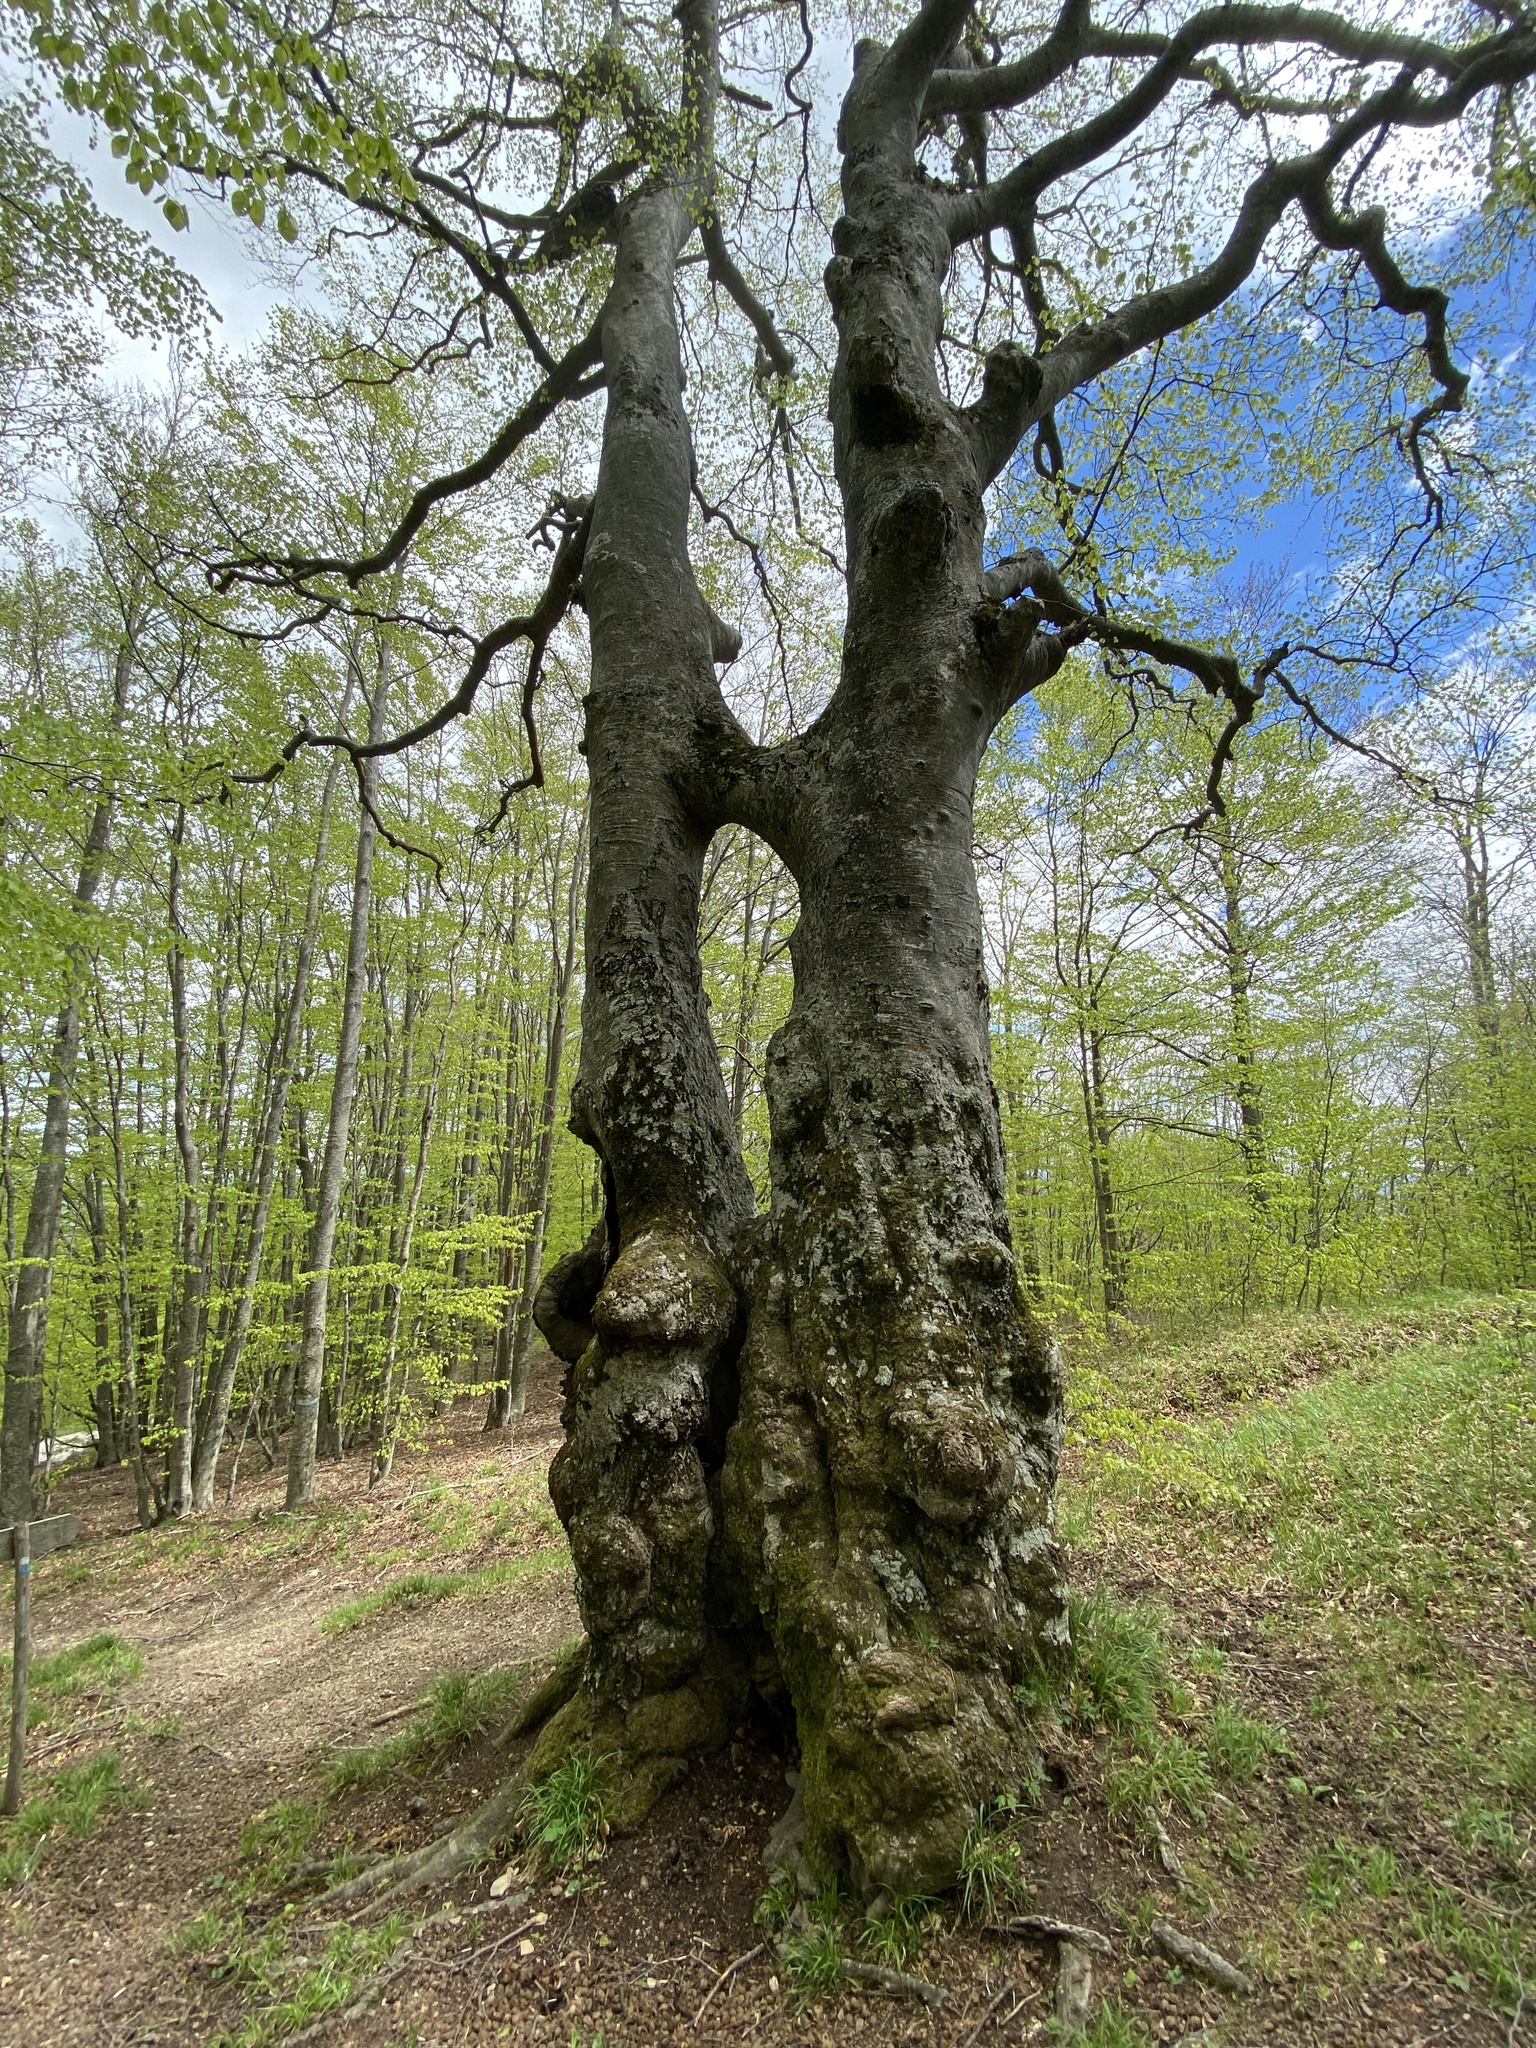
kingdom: Plantae
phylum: Tracheophyta
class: Magnoliopsida
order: Fagales
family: Fagaceae
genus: Fagus
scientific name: Fagus sylvatica
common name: Beech
